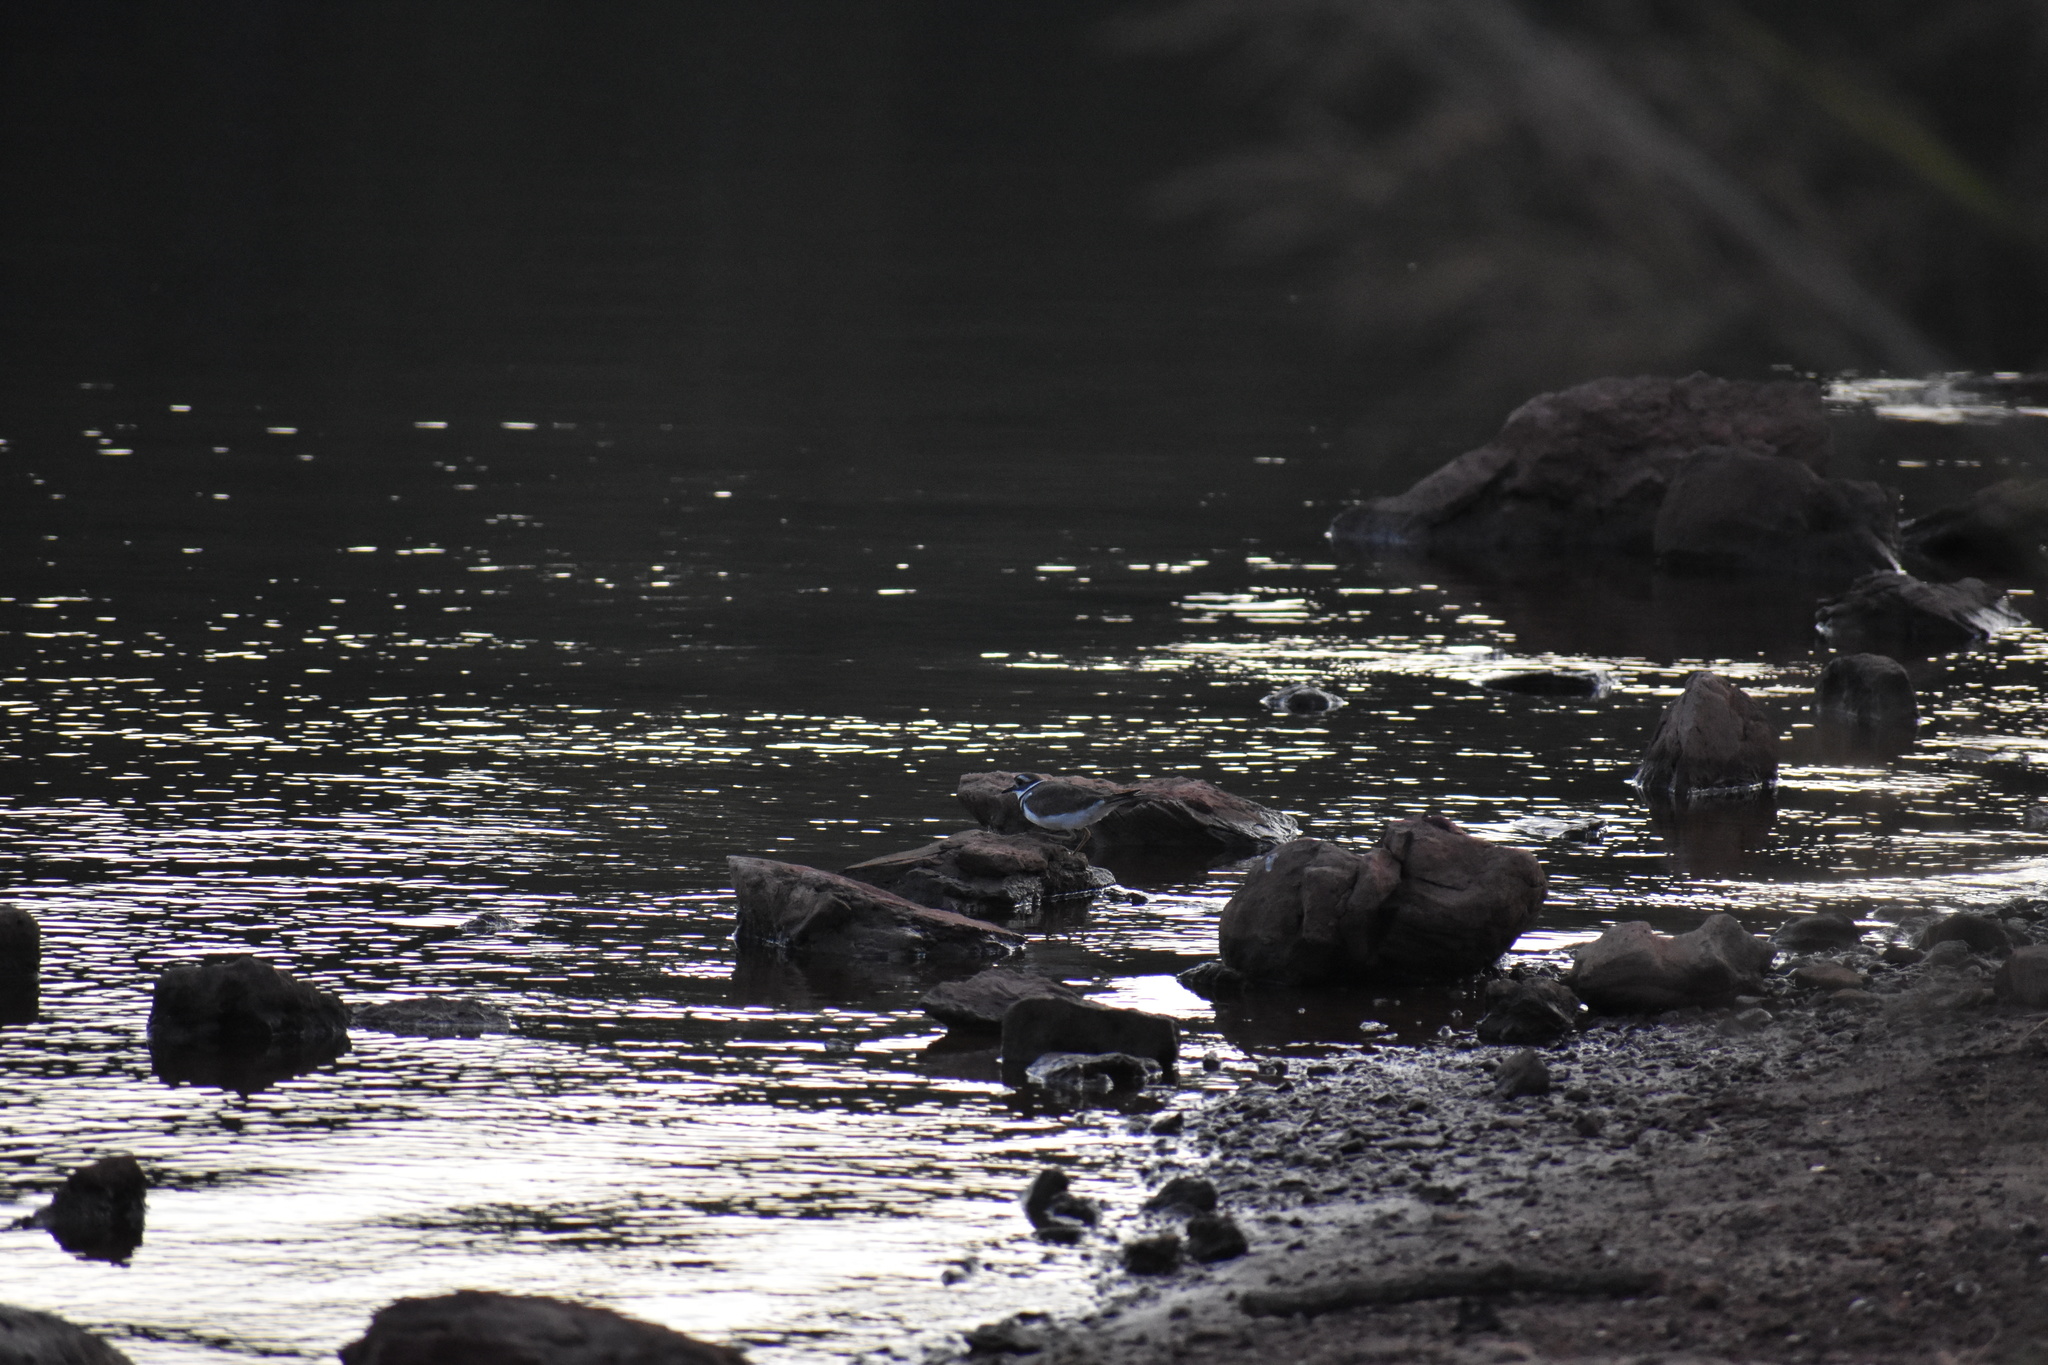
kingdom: Animalia
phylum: Chordata
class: Aves
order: Charadriiformes
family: Charadriidae
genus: Charadrius
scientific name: Charadrius vociferus
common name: Killdeer
